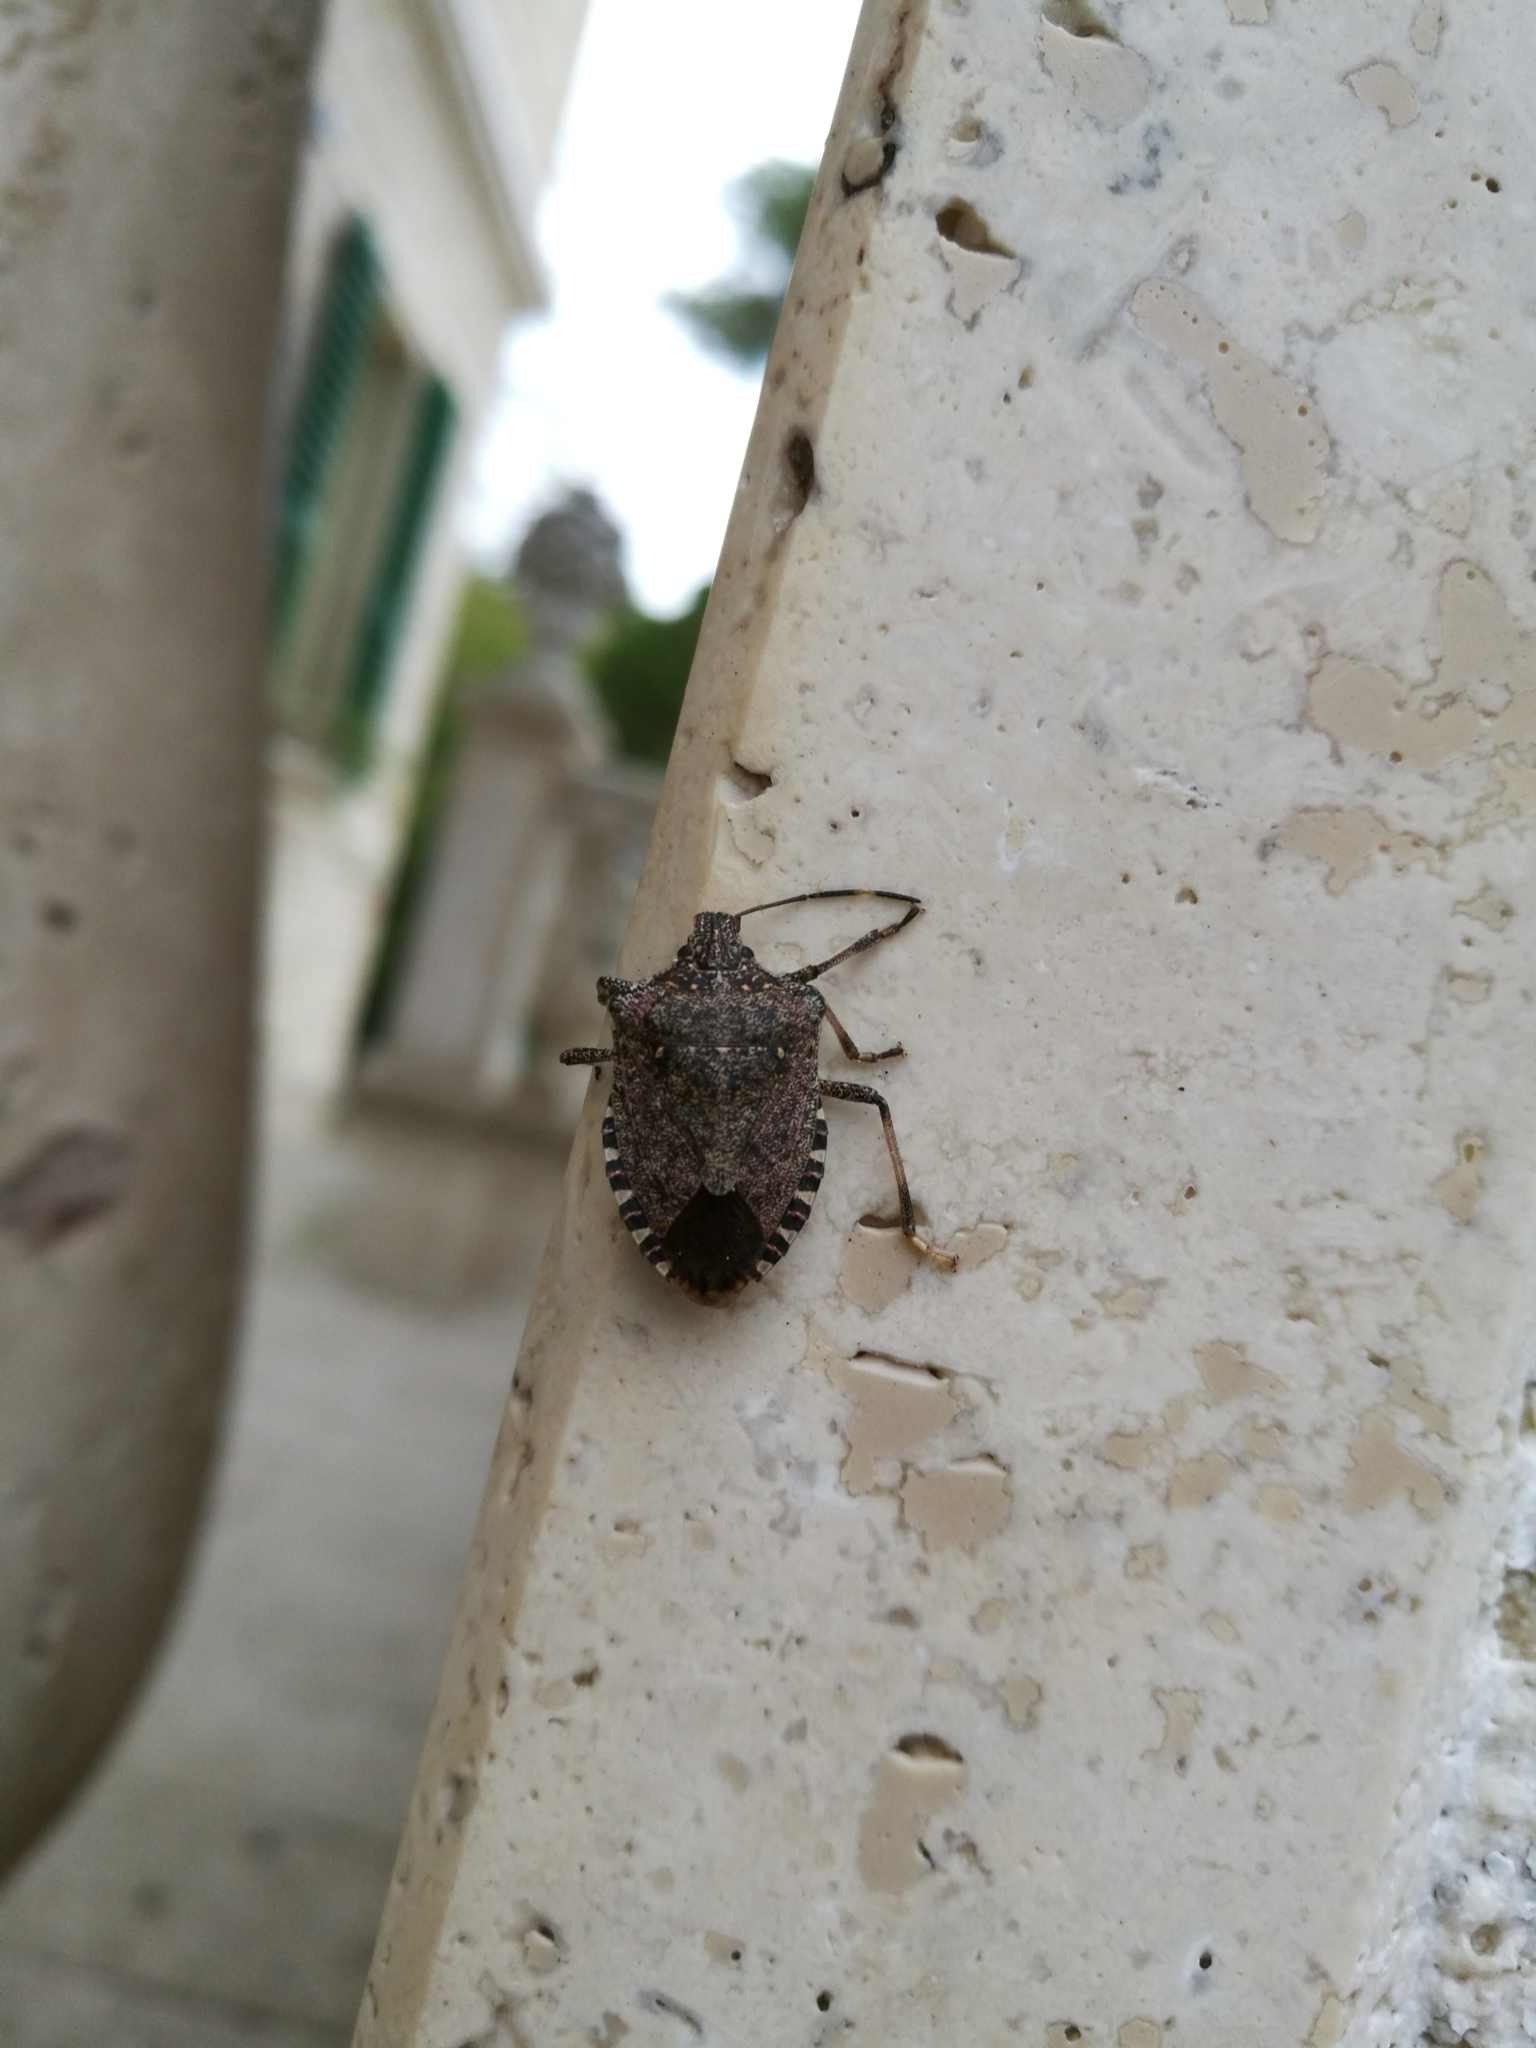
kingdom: Animalia
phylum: Arthropoda
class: Insecta
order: Hemiptera
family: Pentatomidae
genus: Halyomorpha
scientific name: Halyomorpha halys
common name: Brown marmorated stink bug
